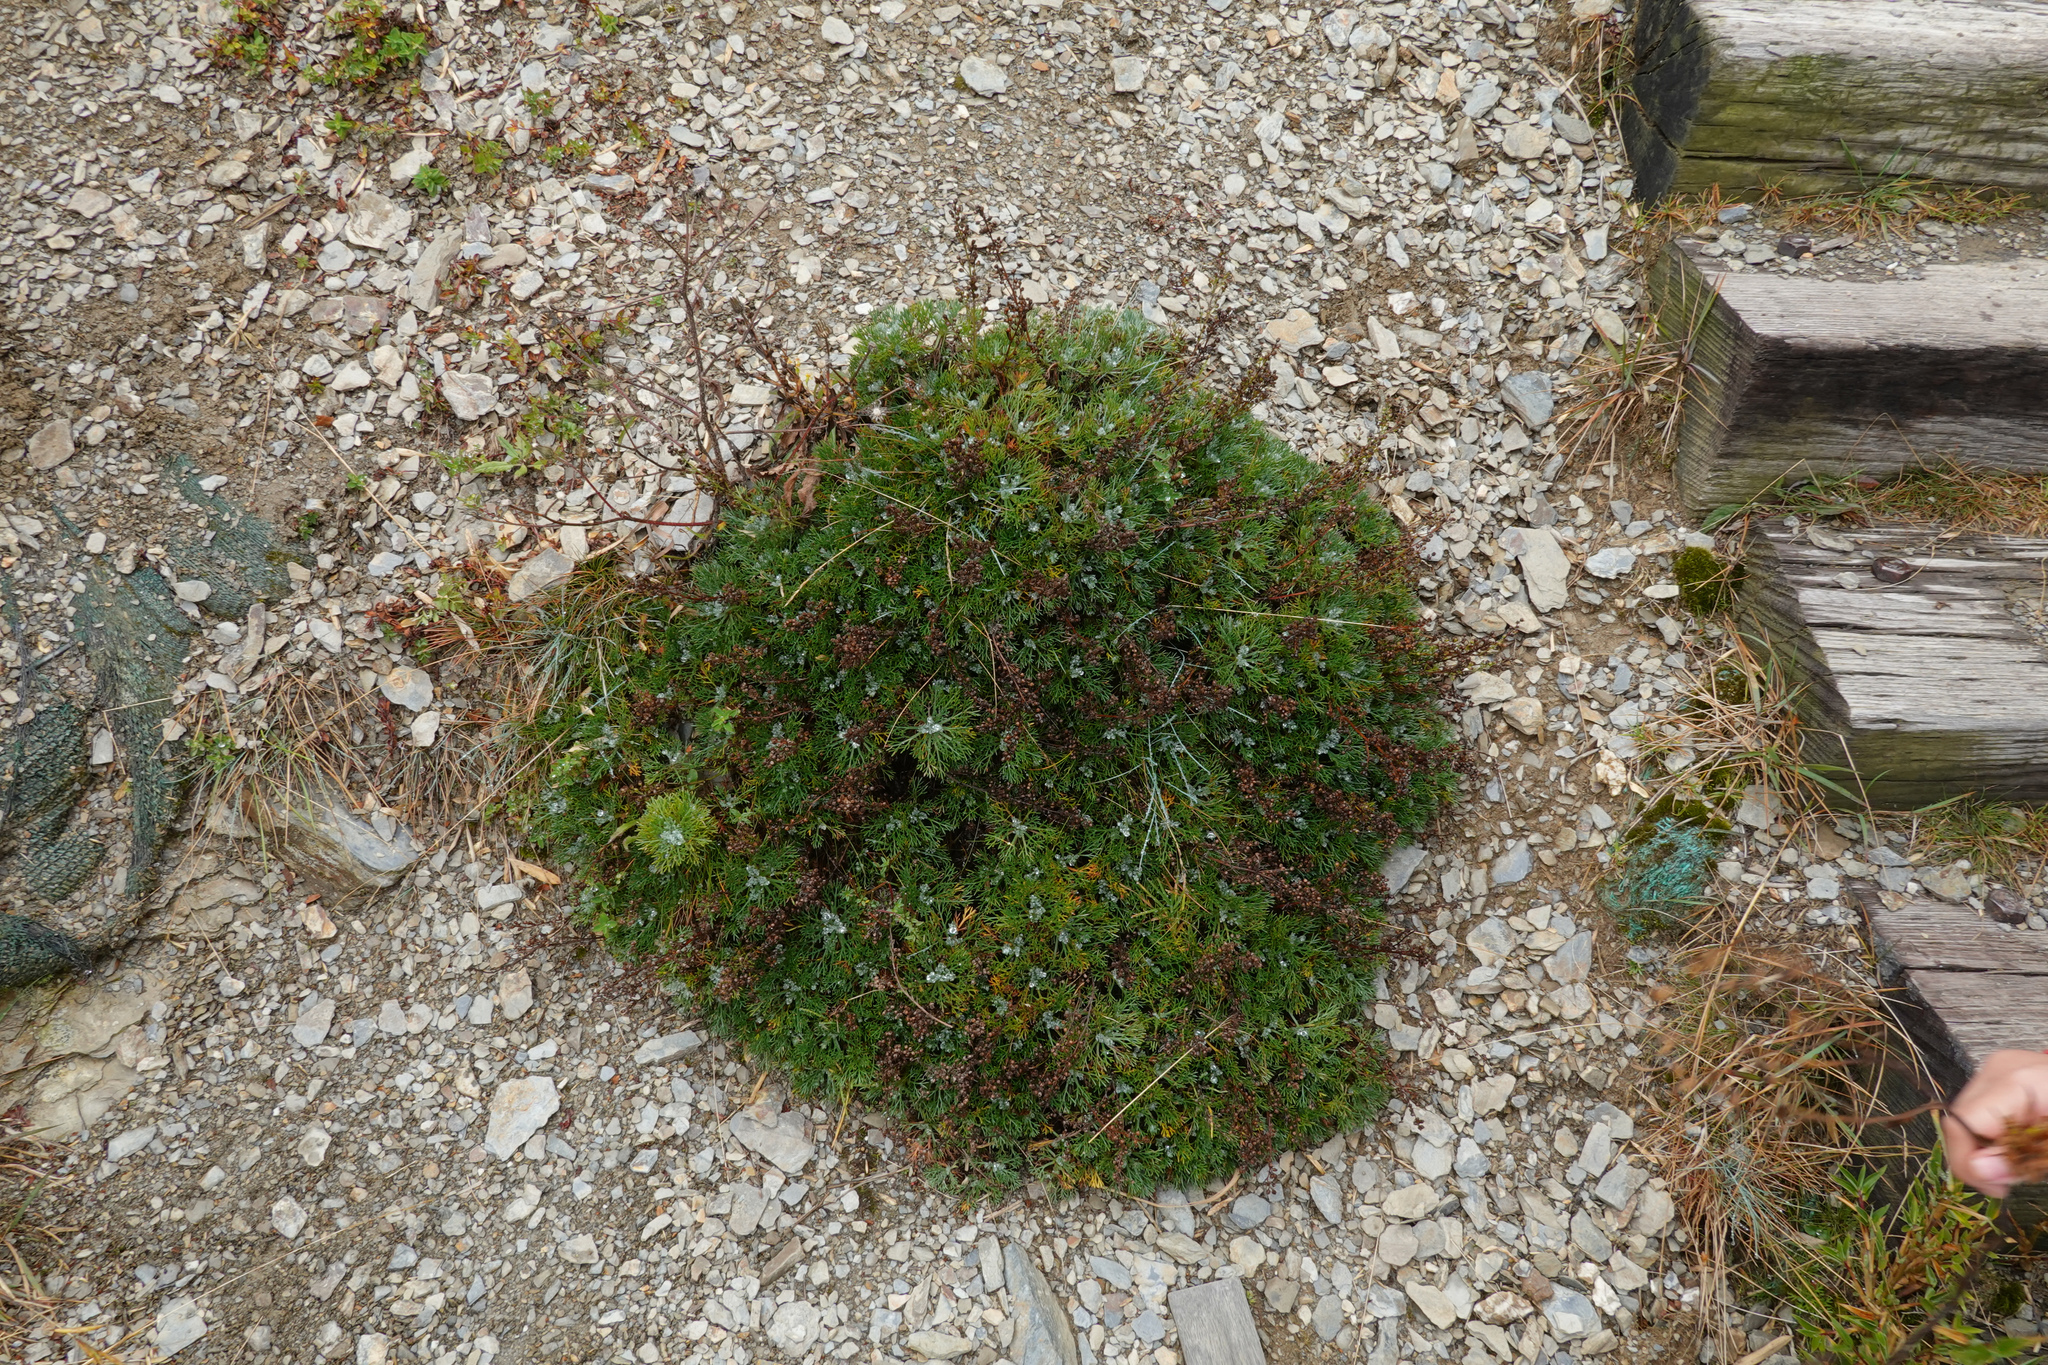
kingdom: Plantae
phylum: Tracheophyta
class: Magnoliopsida
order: Asterales
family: Asteraceae
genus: Artemisia
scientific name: Artemisia morrisonensis
